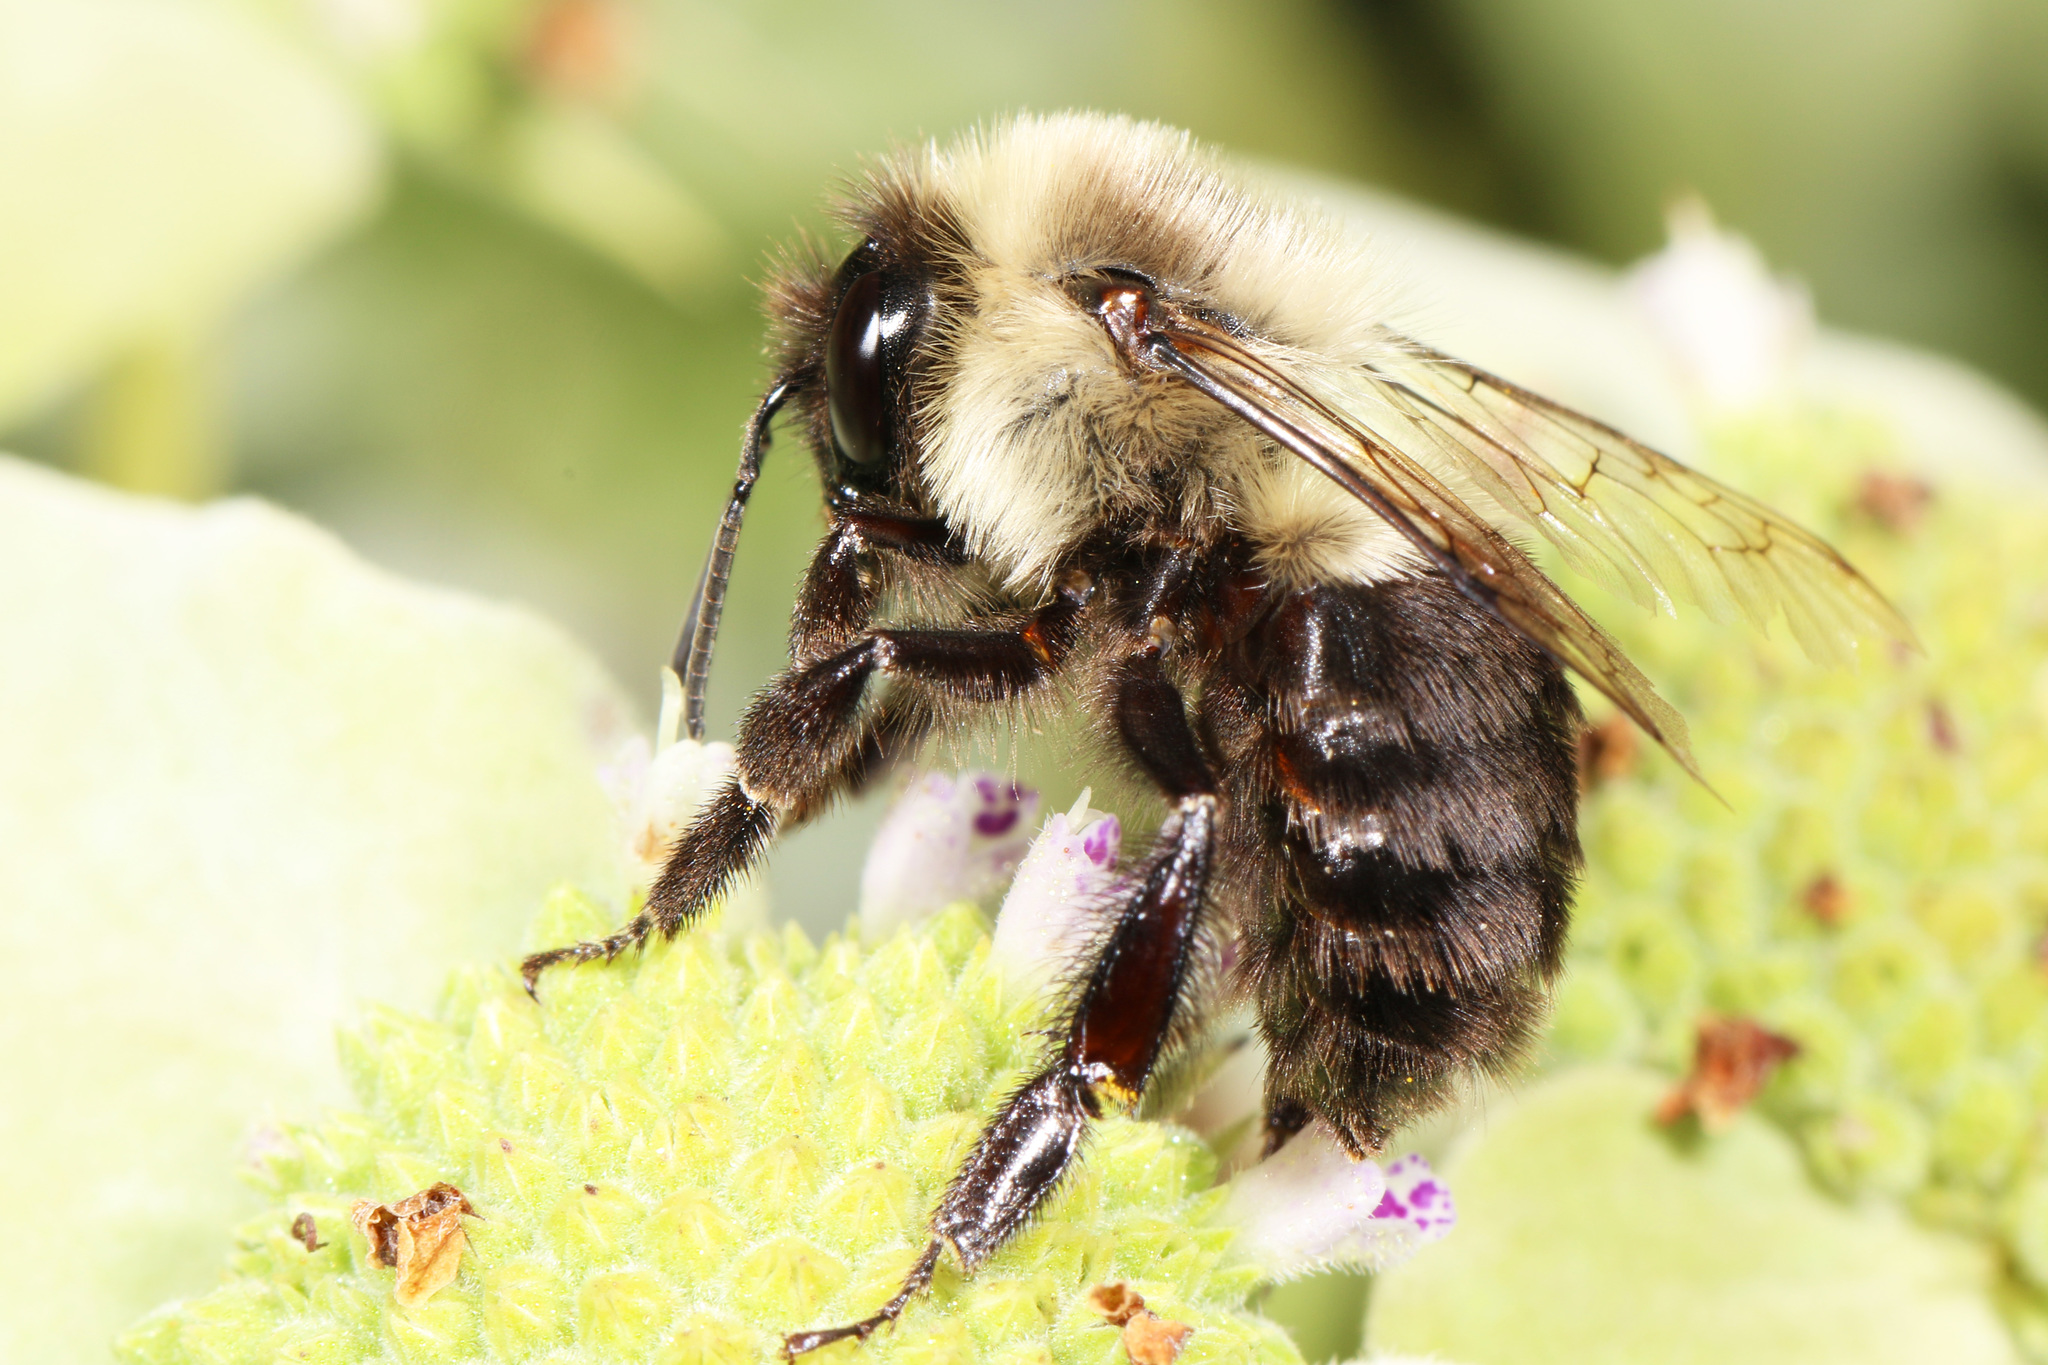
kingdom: Animalia
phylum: Arthropoda
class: Insecta
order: Hymenoptera
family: Apidae
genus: Bombus
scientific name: Bombus impatiens
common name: Common eastern bumble bee
